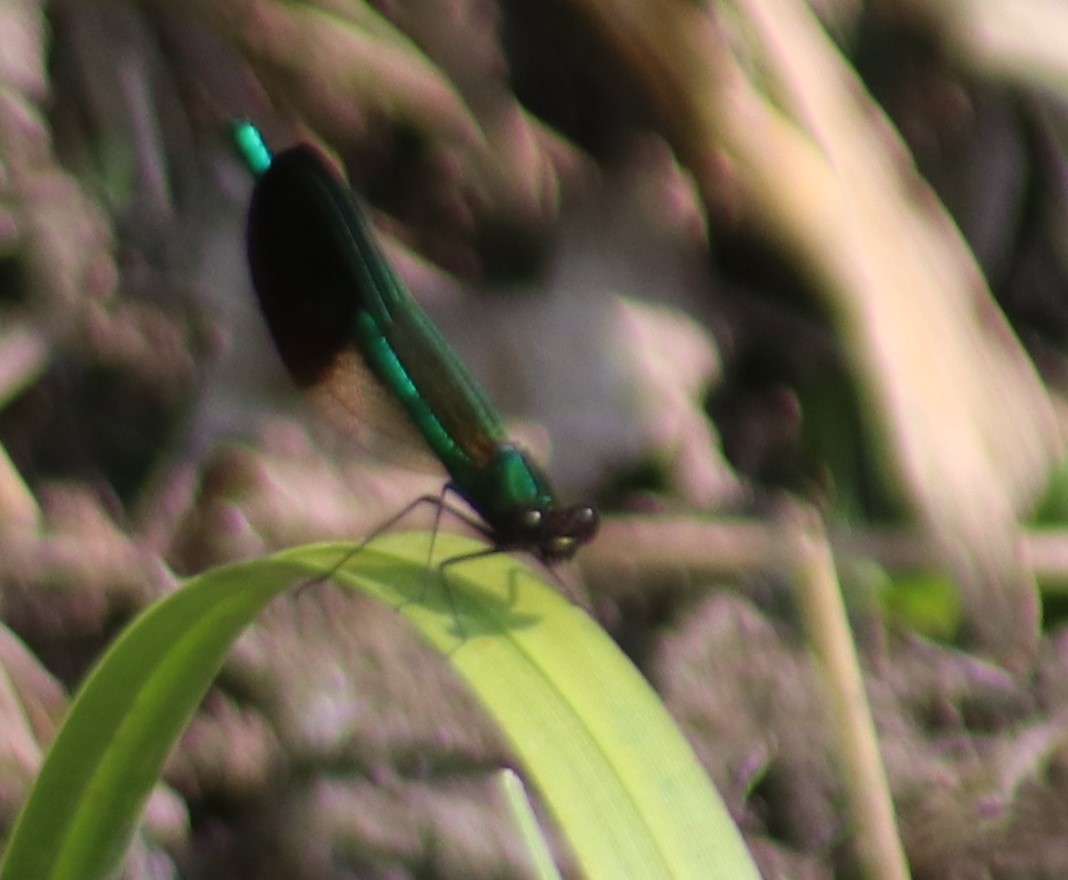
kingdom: Animalia
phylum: Arthropoda
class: Insecta
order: Odonata
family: Calopterygidae
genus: Calopteryx
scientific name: Calopteryx aequabilis
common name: River jewelwing
